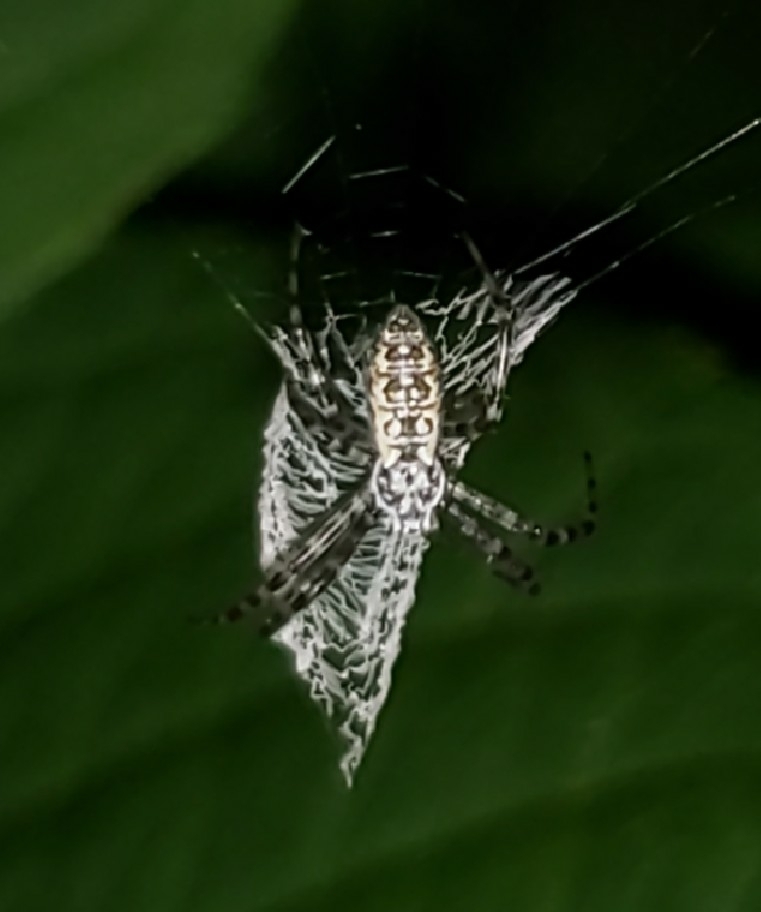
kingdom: Animalia
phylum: Arthropoda
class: Arachnida
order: Araneae
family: Araneidae
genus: Argiope
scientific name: Argiope aurantia
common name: Orb weavers
